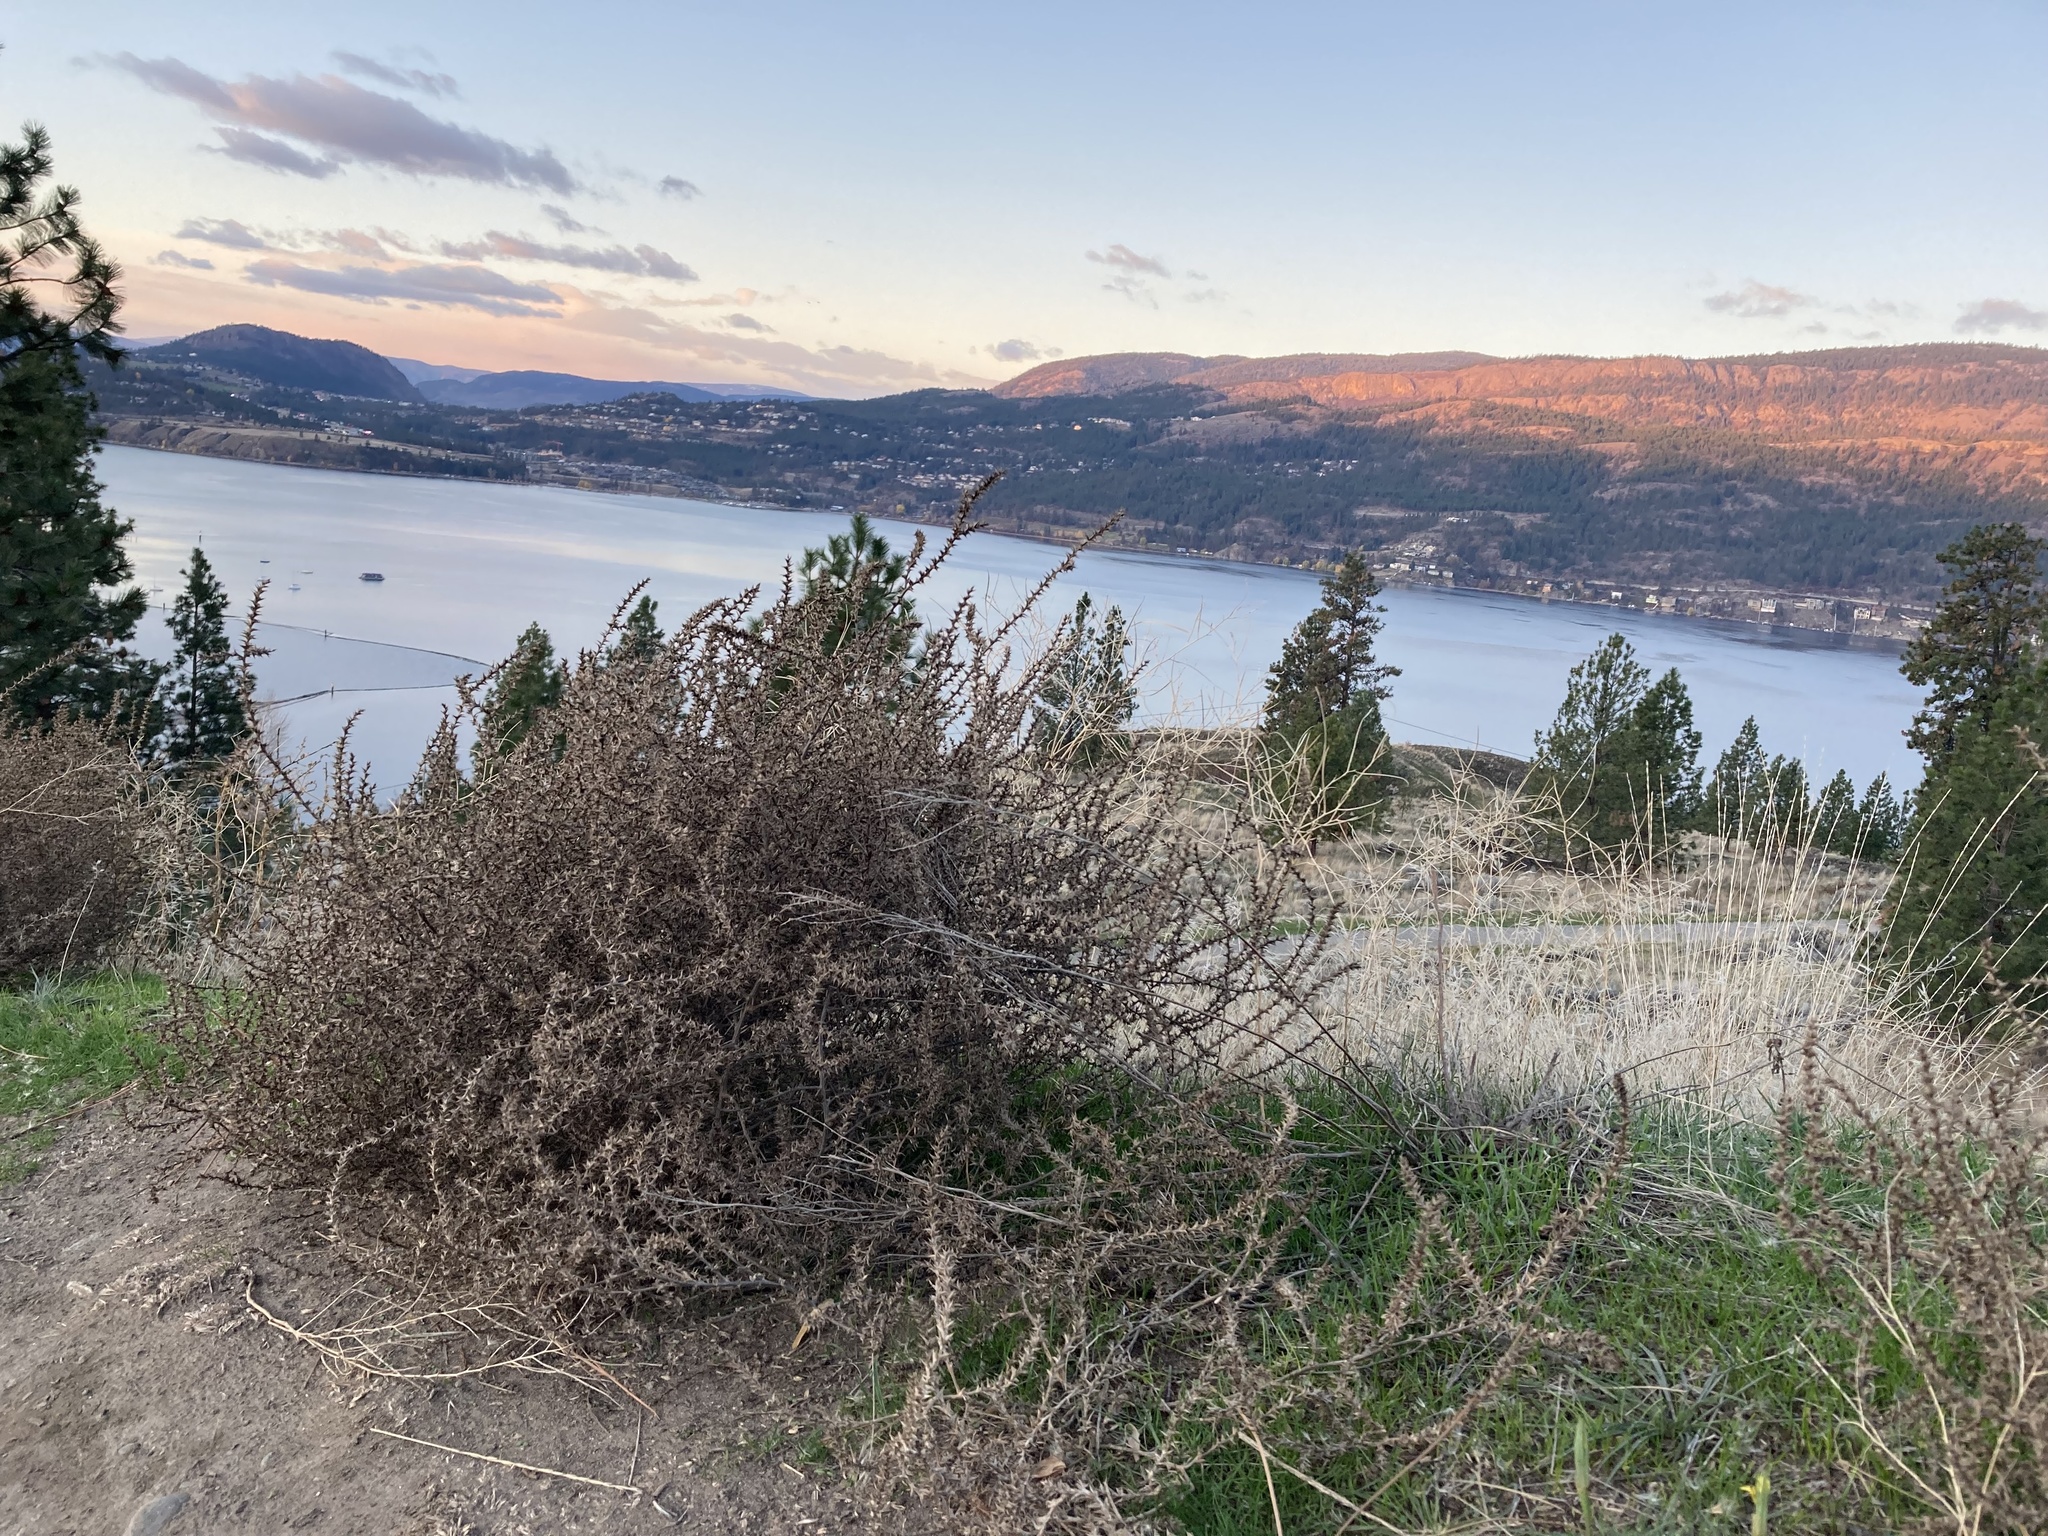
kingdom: Plantae
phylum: Tracheophyta
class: Magnoliopsida
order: Caryophyllales
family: Amaranthaceae
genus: Salsola
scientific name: Salsola tragus
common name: Prickly russian thistle
